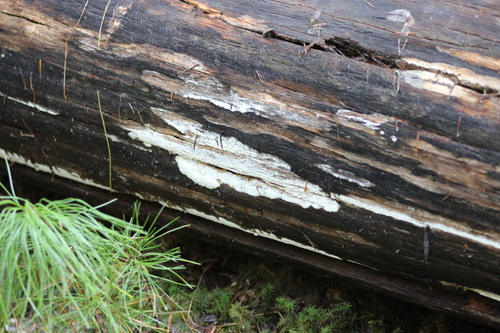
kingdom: Fungi
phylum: Basidiomycota
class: Agaricomycetes
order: Polyporales
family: Incrustoporiaceae
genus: Skeletocutis
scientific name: Skeletocutis
